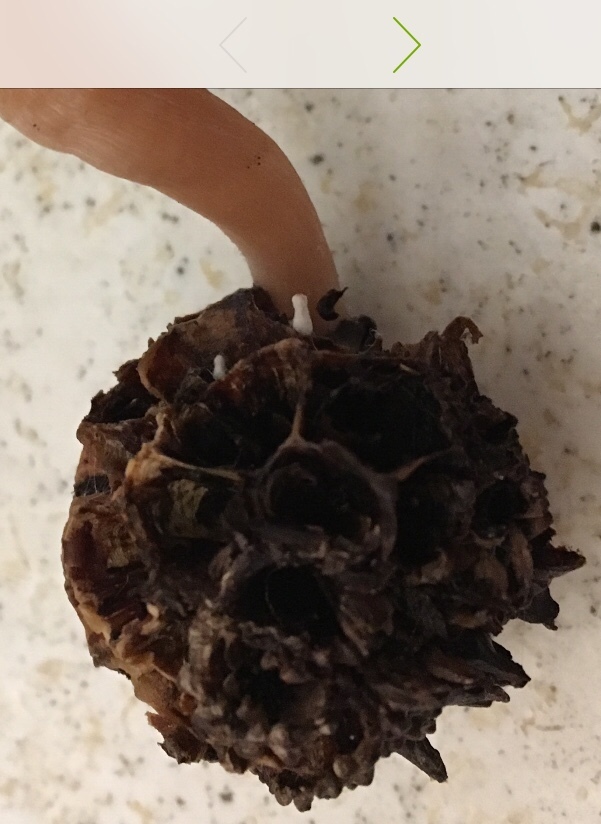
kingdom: Fungi
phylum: Ascomycota
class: Sordariomycetes
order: Xylariales
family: Xylariaceae
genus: Xylaria
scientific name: Xylaria liquidambaris
